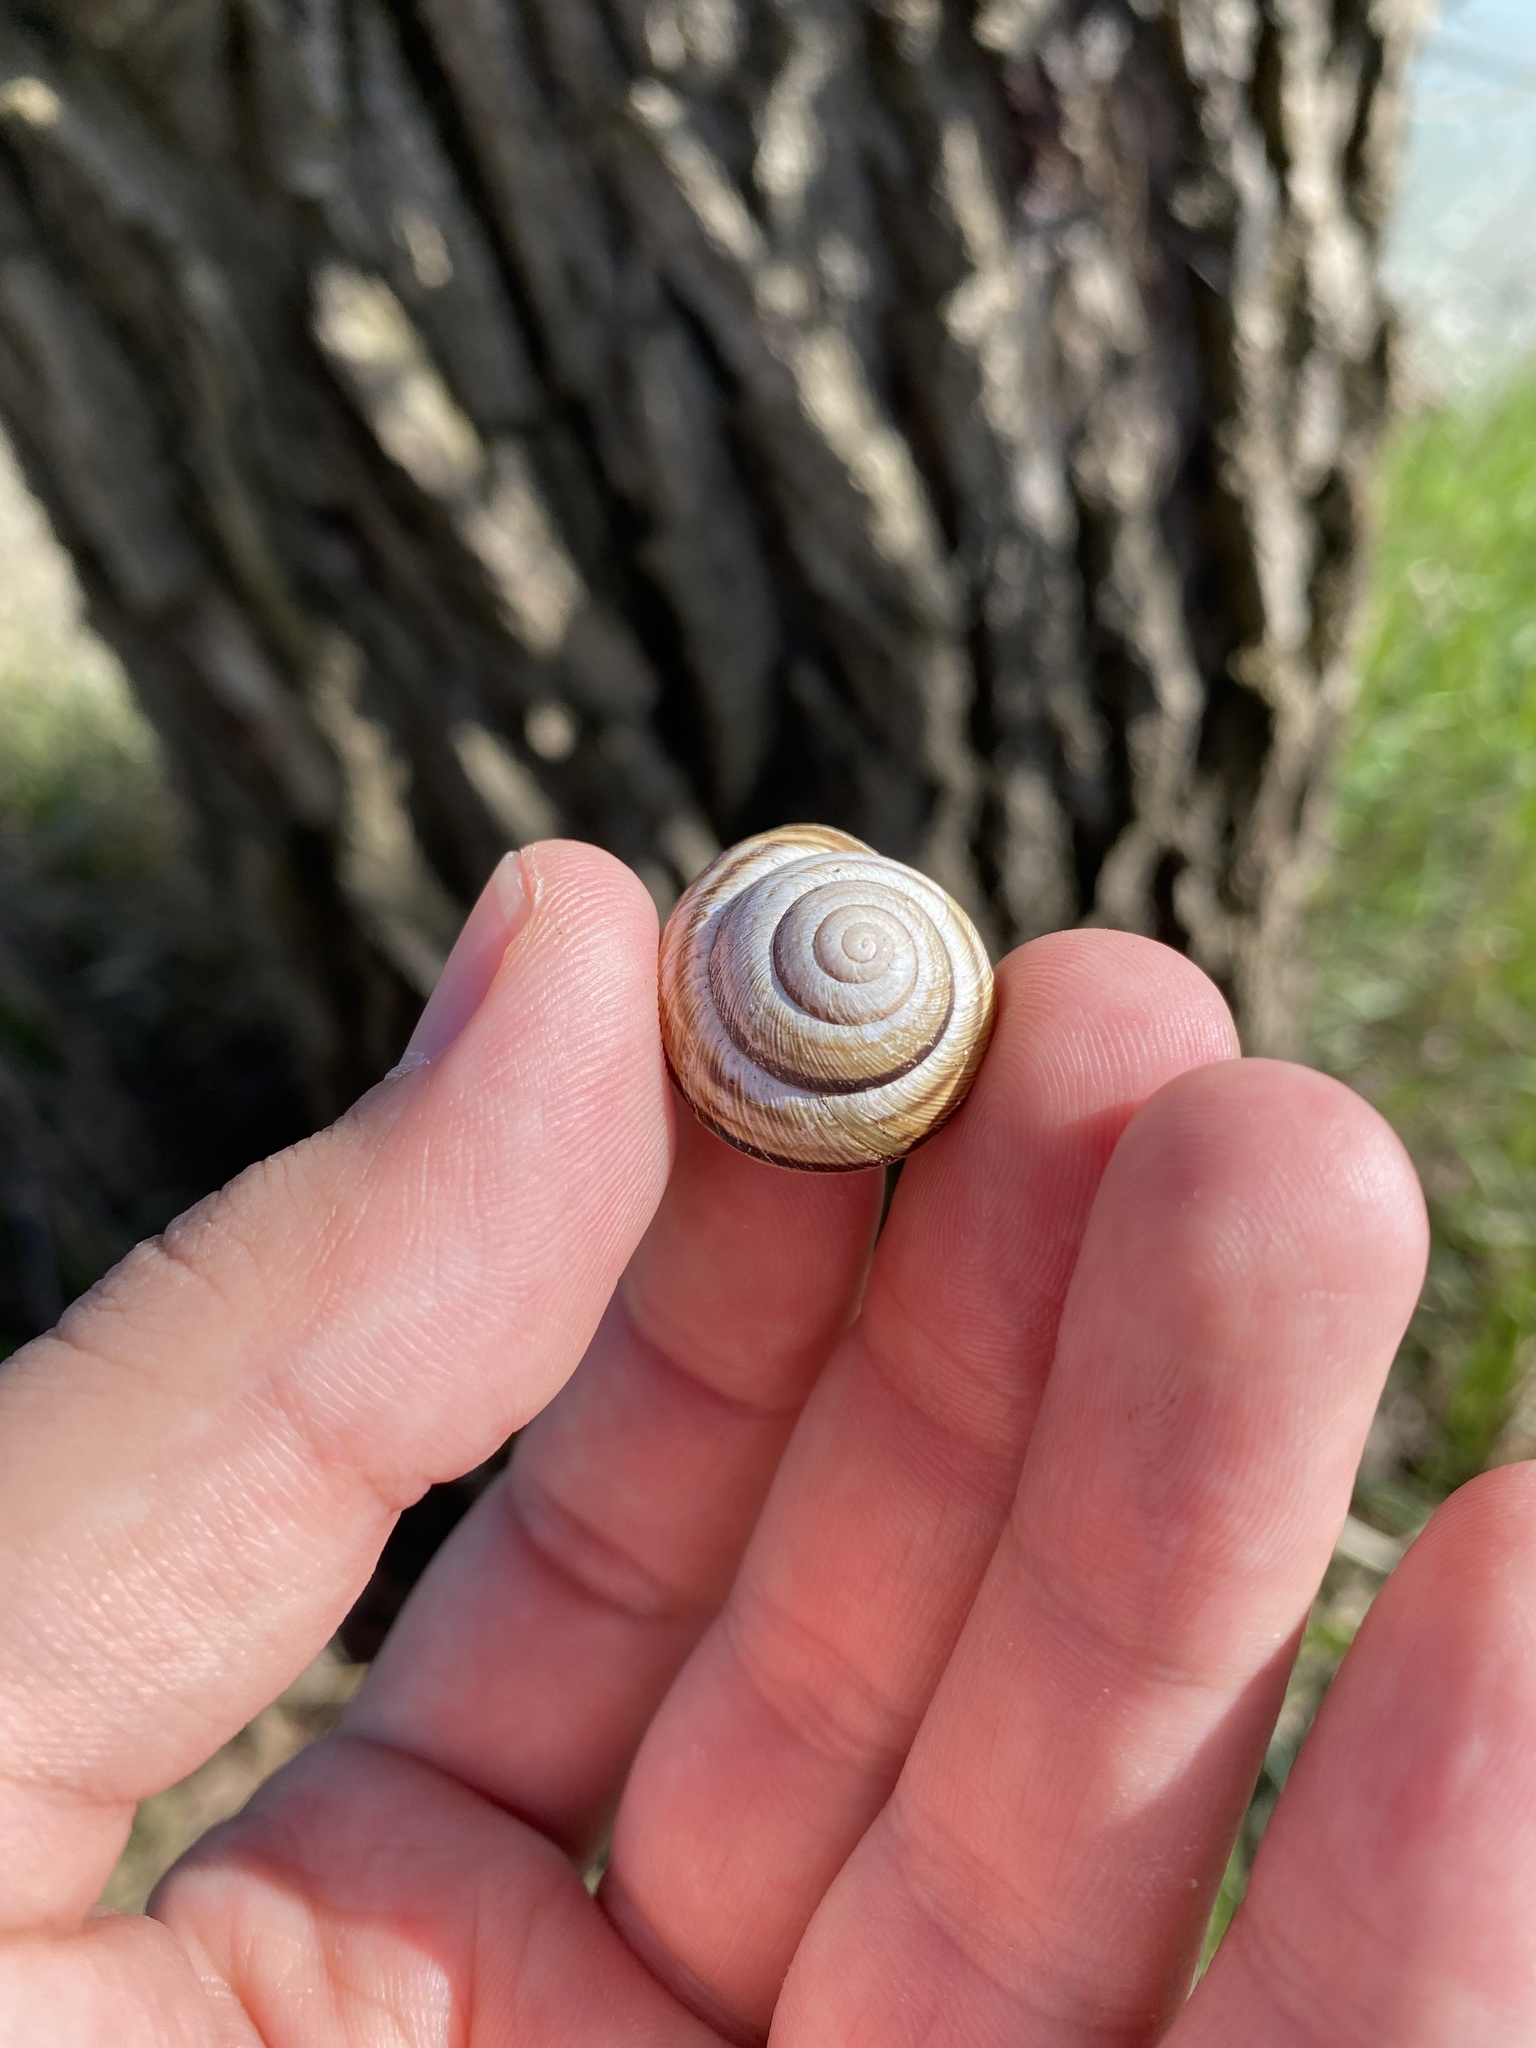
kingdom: Animalia
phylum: Mollusca
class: Gastropoda
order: Stylommatophora
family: Helicidae
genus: Caucasotachea
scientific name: Caucasotachea vindobonensis
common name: European helicid land snail
